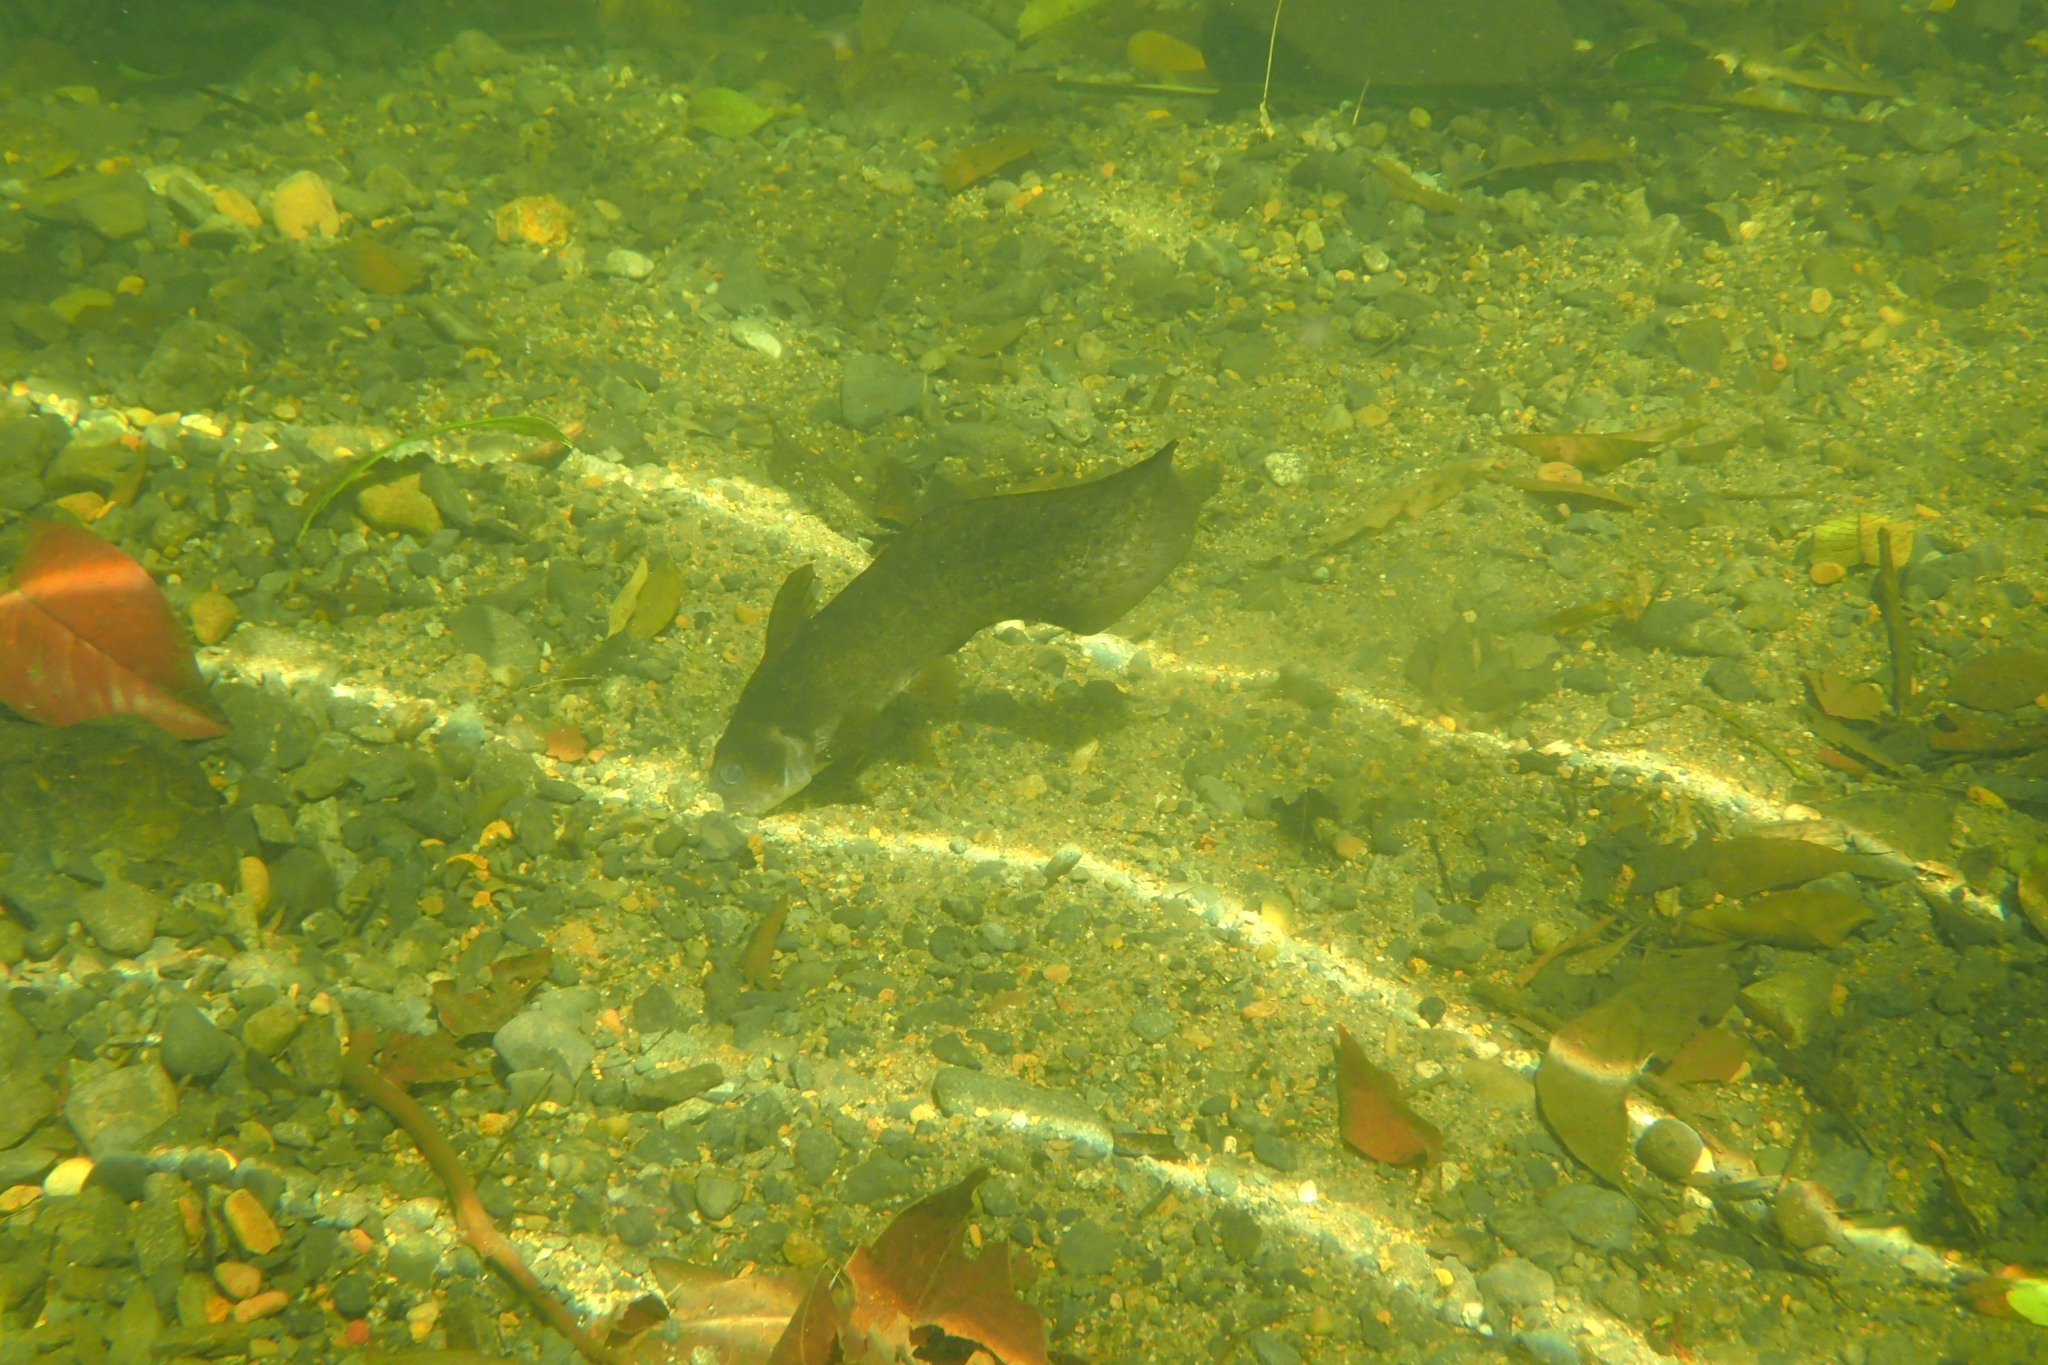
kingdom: Animalia
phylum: Chordata
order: Siluriformes
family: Plotosidae
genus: Tandanus
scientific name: Tandanus tropicanus
